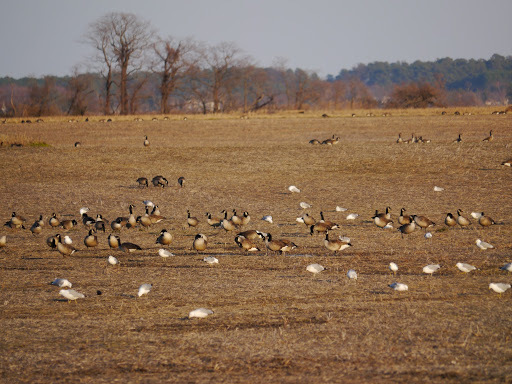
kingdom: Animalia
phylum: Chordata
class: Aves
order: Anseriformes
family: Anatidae
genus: Branta
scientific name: Branta canadensis
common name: Canada goose
